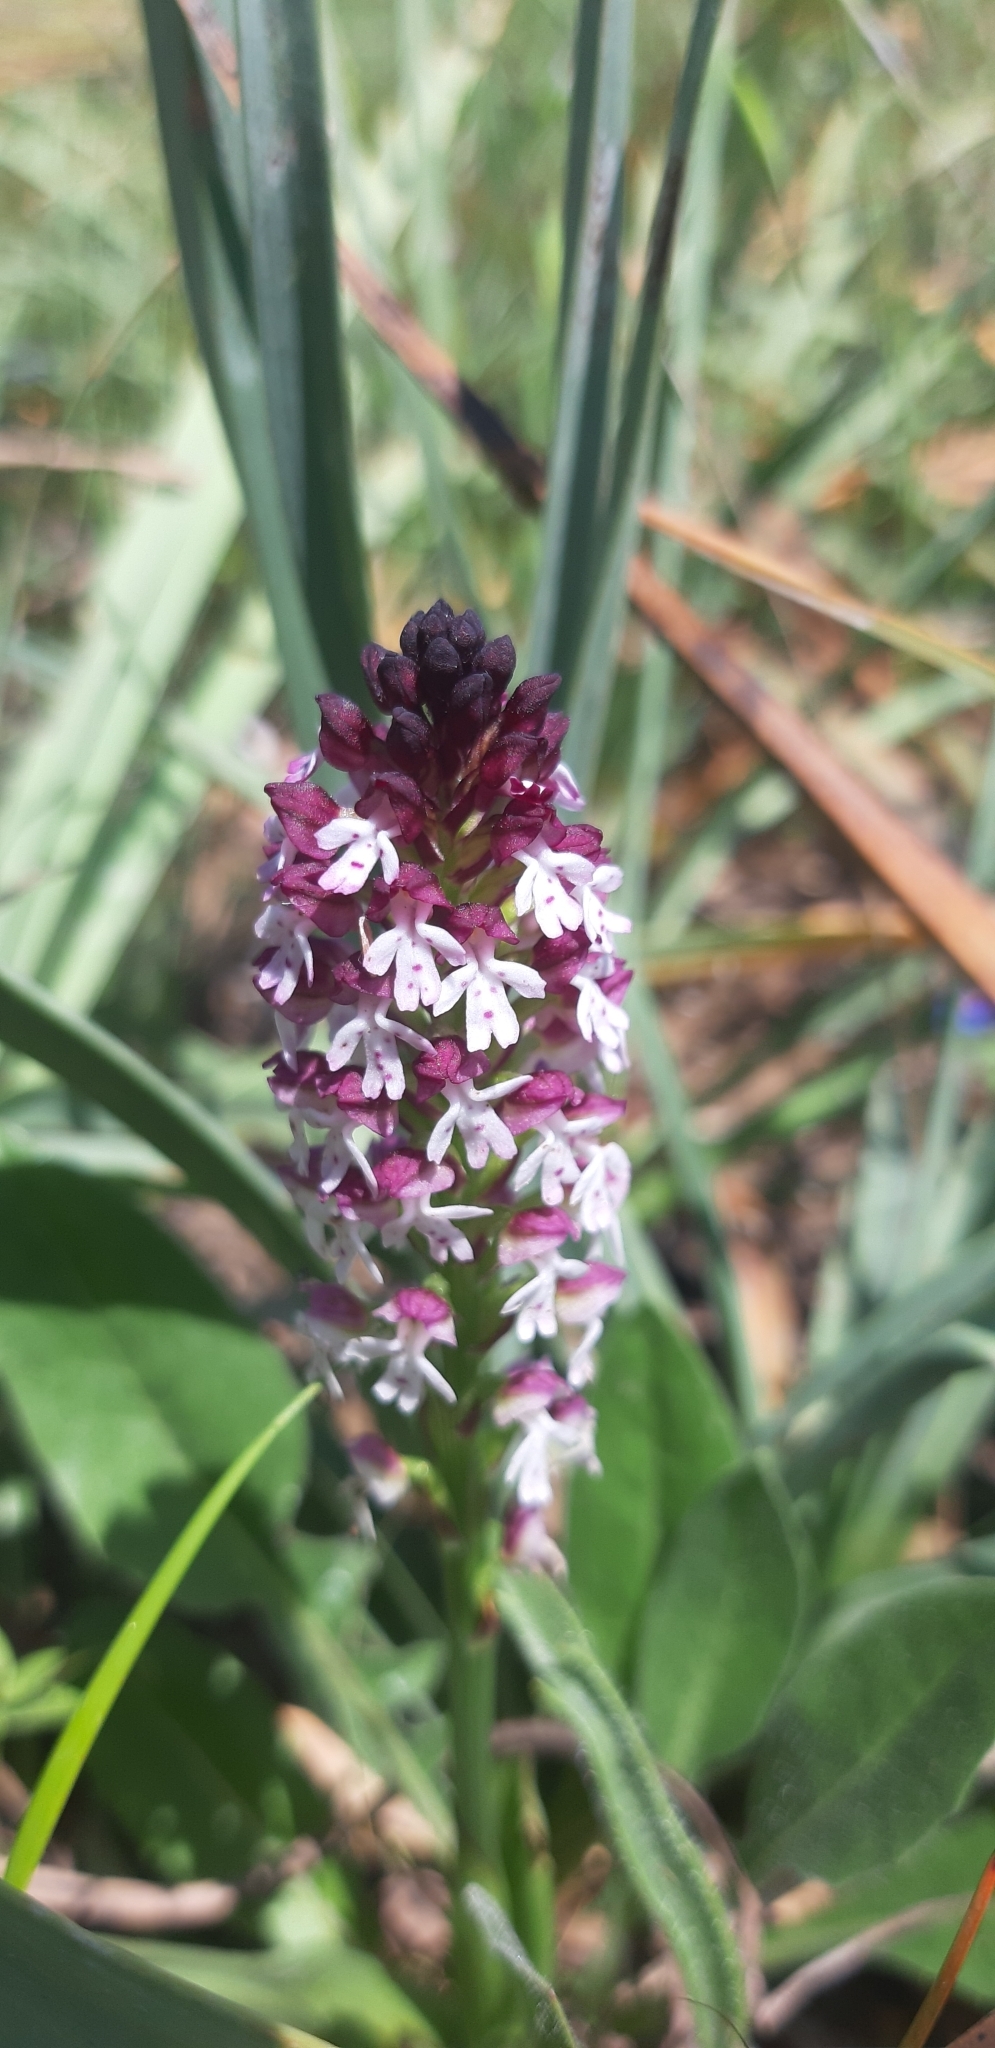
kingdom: Plantae
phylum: Tracheophyta
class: Liliopsida
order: Asparagales
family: Orchidaceae
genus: Neotinea
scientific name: Neotinea ustulata
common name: Burnt orchid
